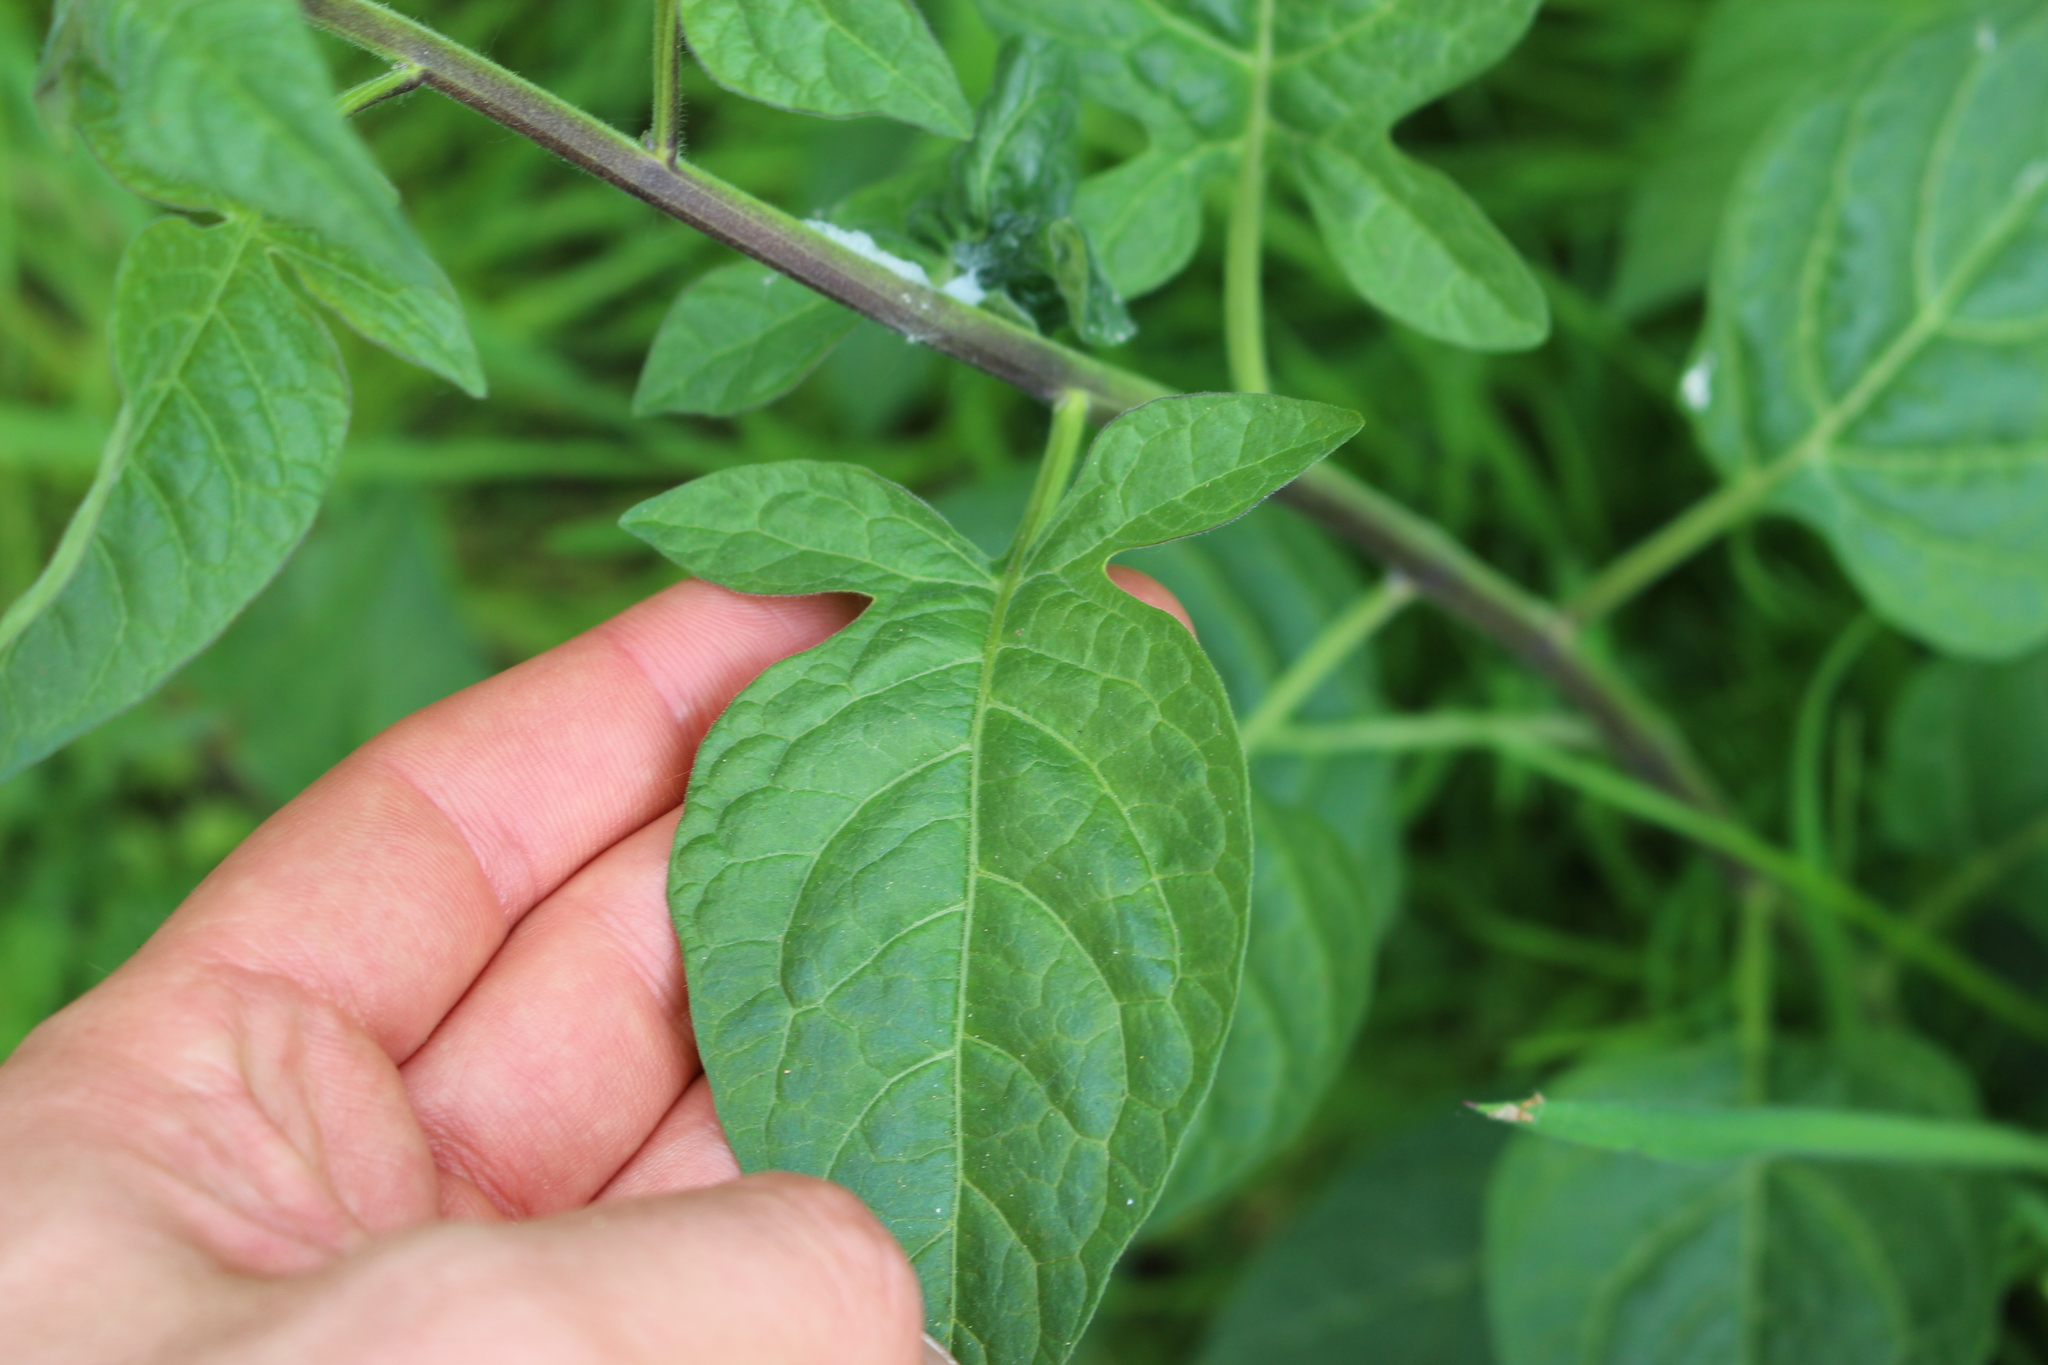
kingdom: Plantae
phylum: Tracheophyta
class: Magnoliopsida
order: Solanales
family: Solanaceae
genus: Solanum
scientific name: Solanum dulcamara
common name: Climbing nightshade
